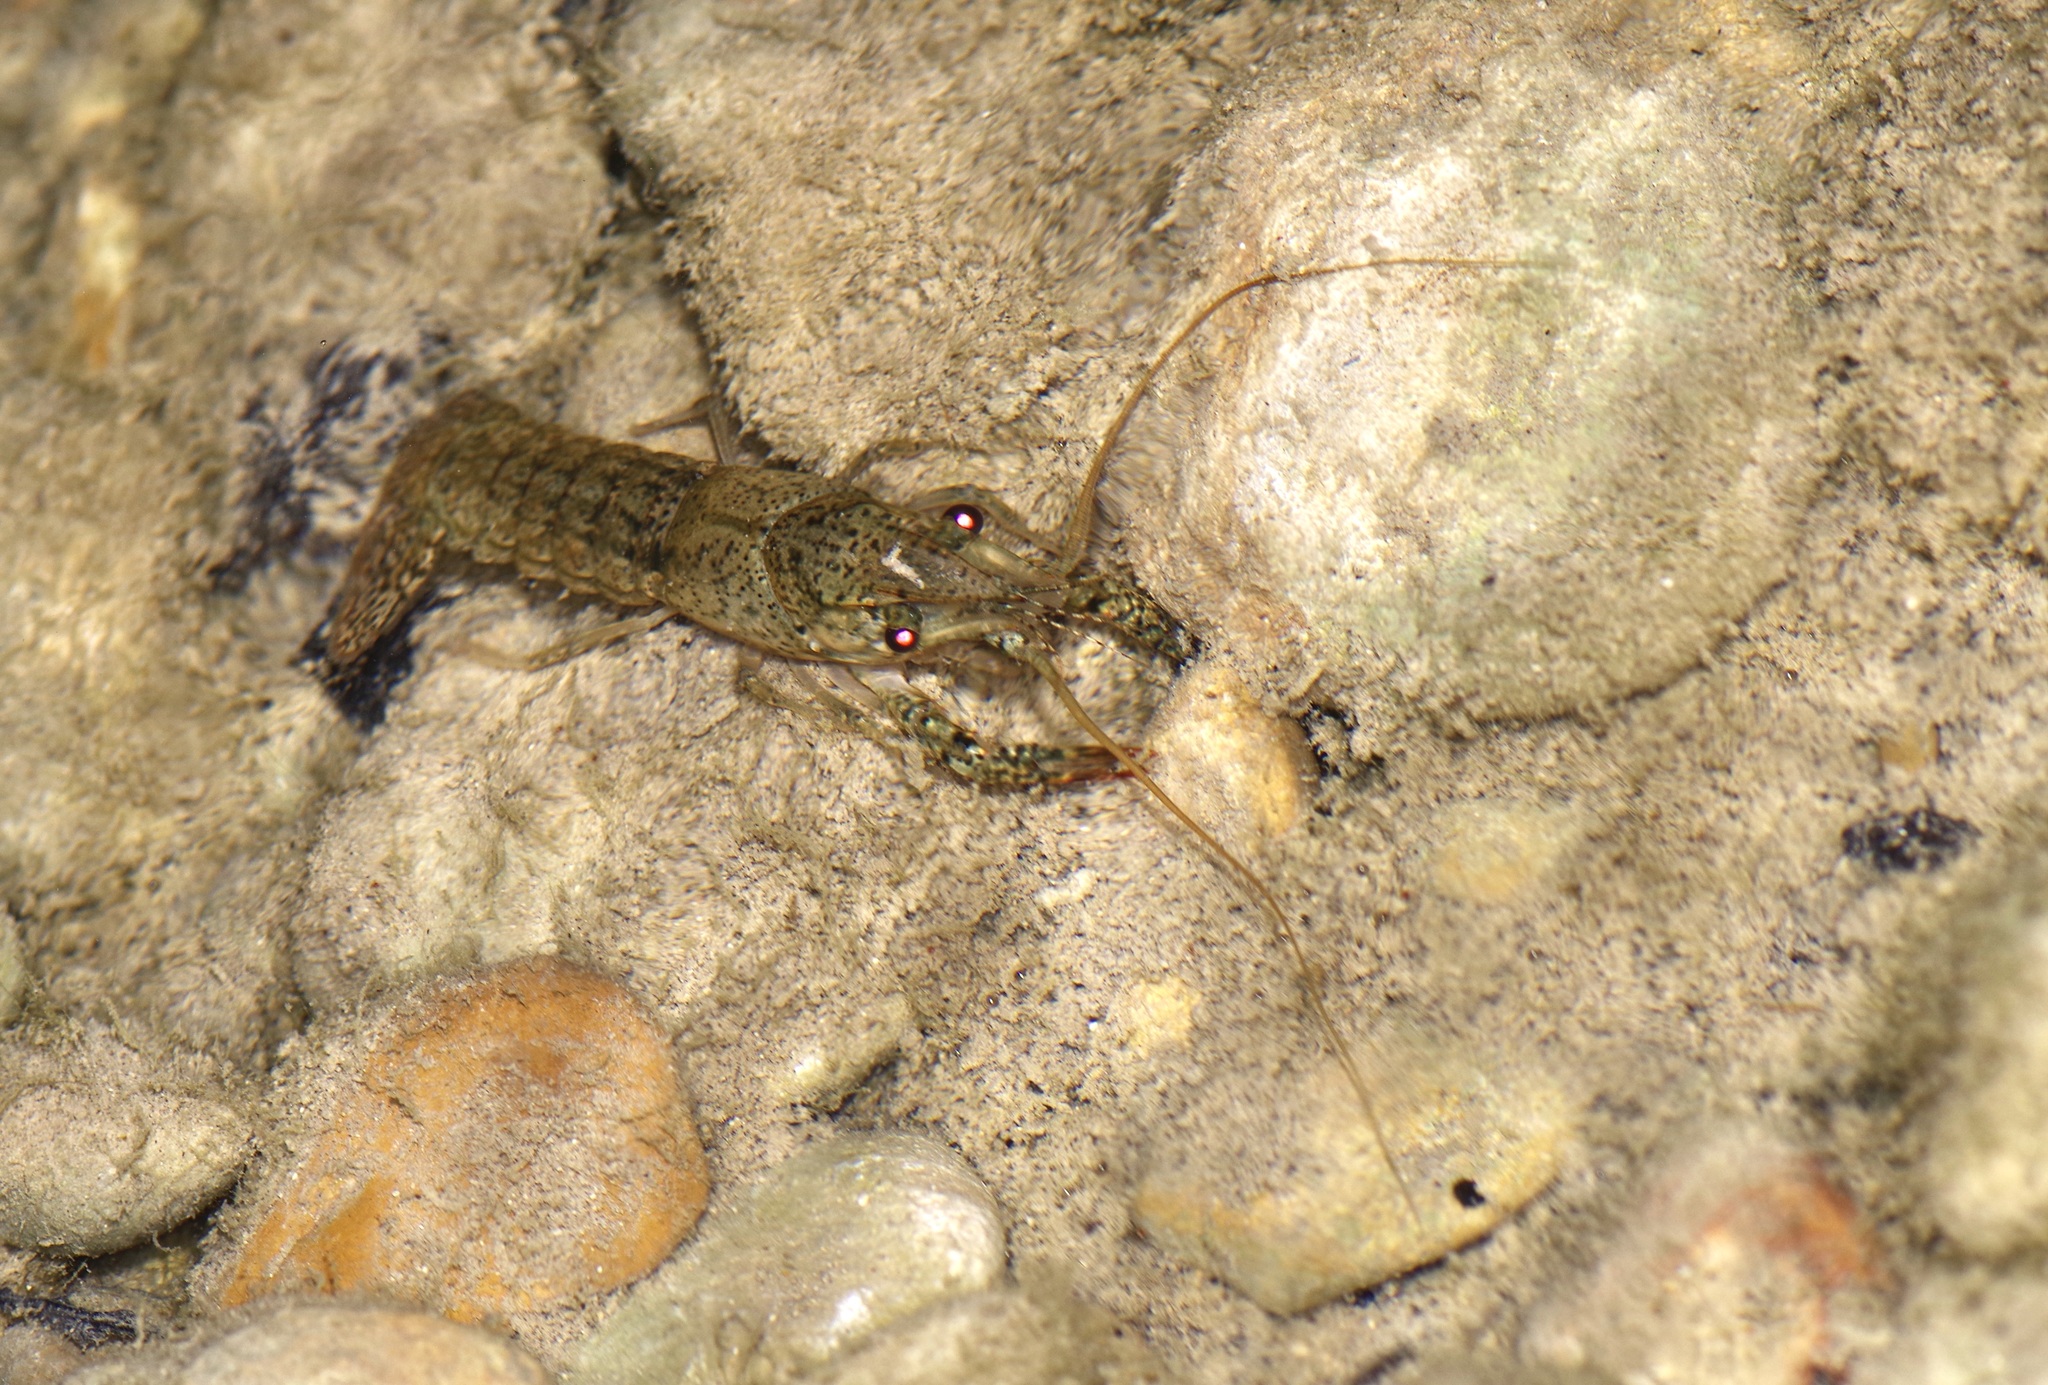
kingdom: Animalia
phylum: Arthropoda
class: Malacostraca
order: Decapoda
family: Cambaridae
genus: Procambarus
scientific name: Procambarus clarkii
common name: Red swamp crayfish
